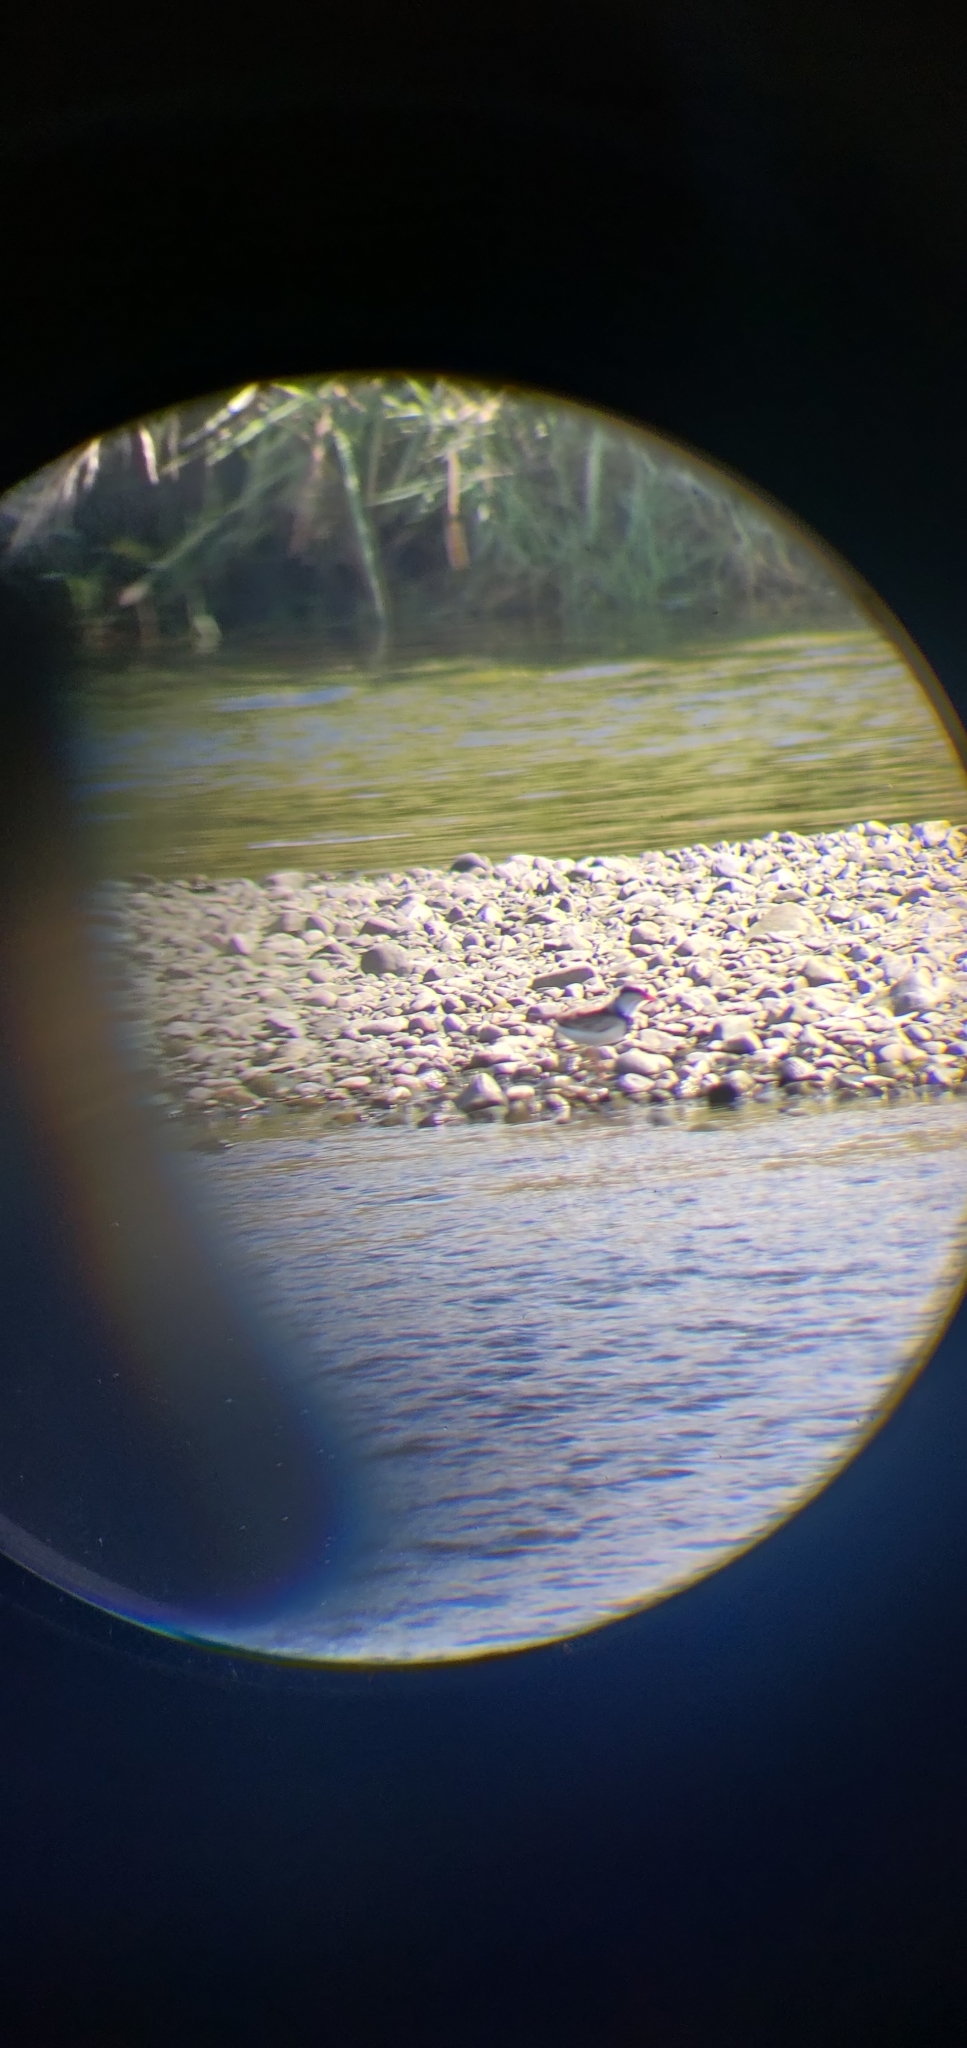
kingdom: Animalia
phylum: Chordata
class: Aves
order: Charadriiformes
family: Charadriidae
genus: Elseyornis
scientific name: Elseyornis melanops
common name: Black-fronted dotterel
